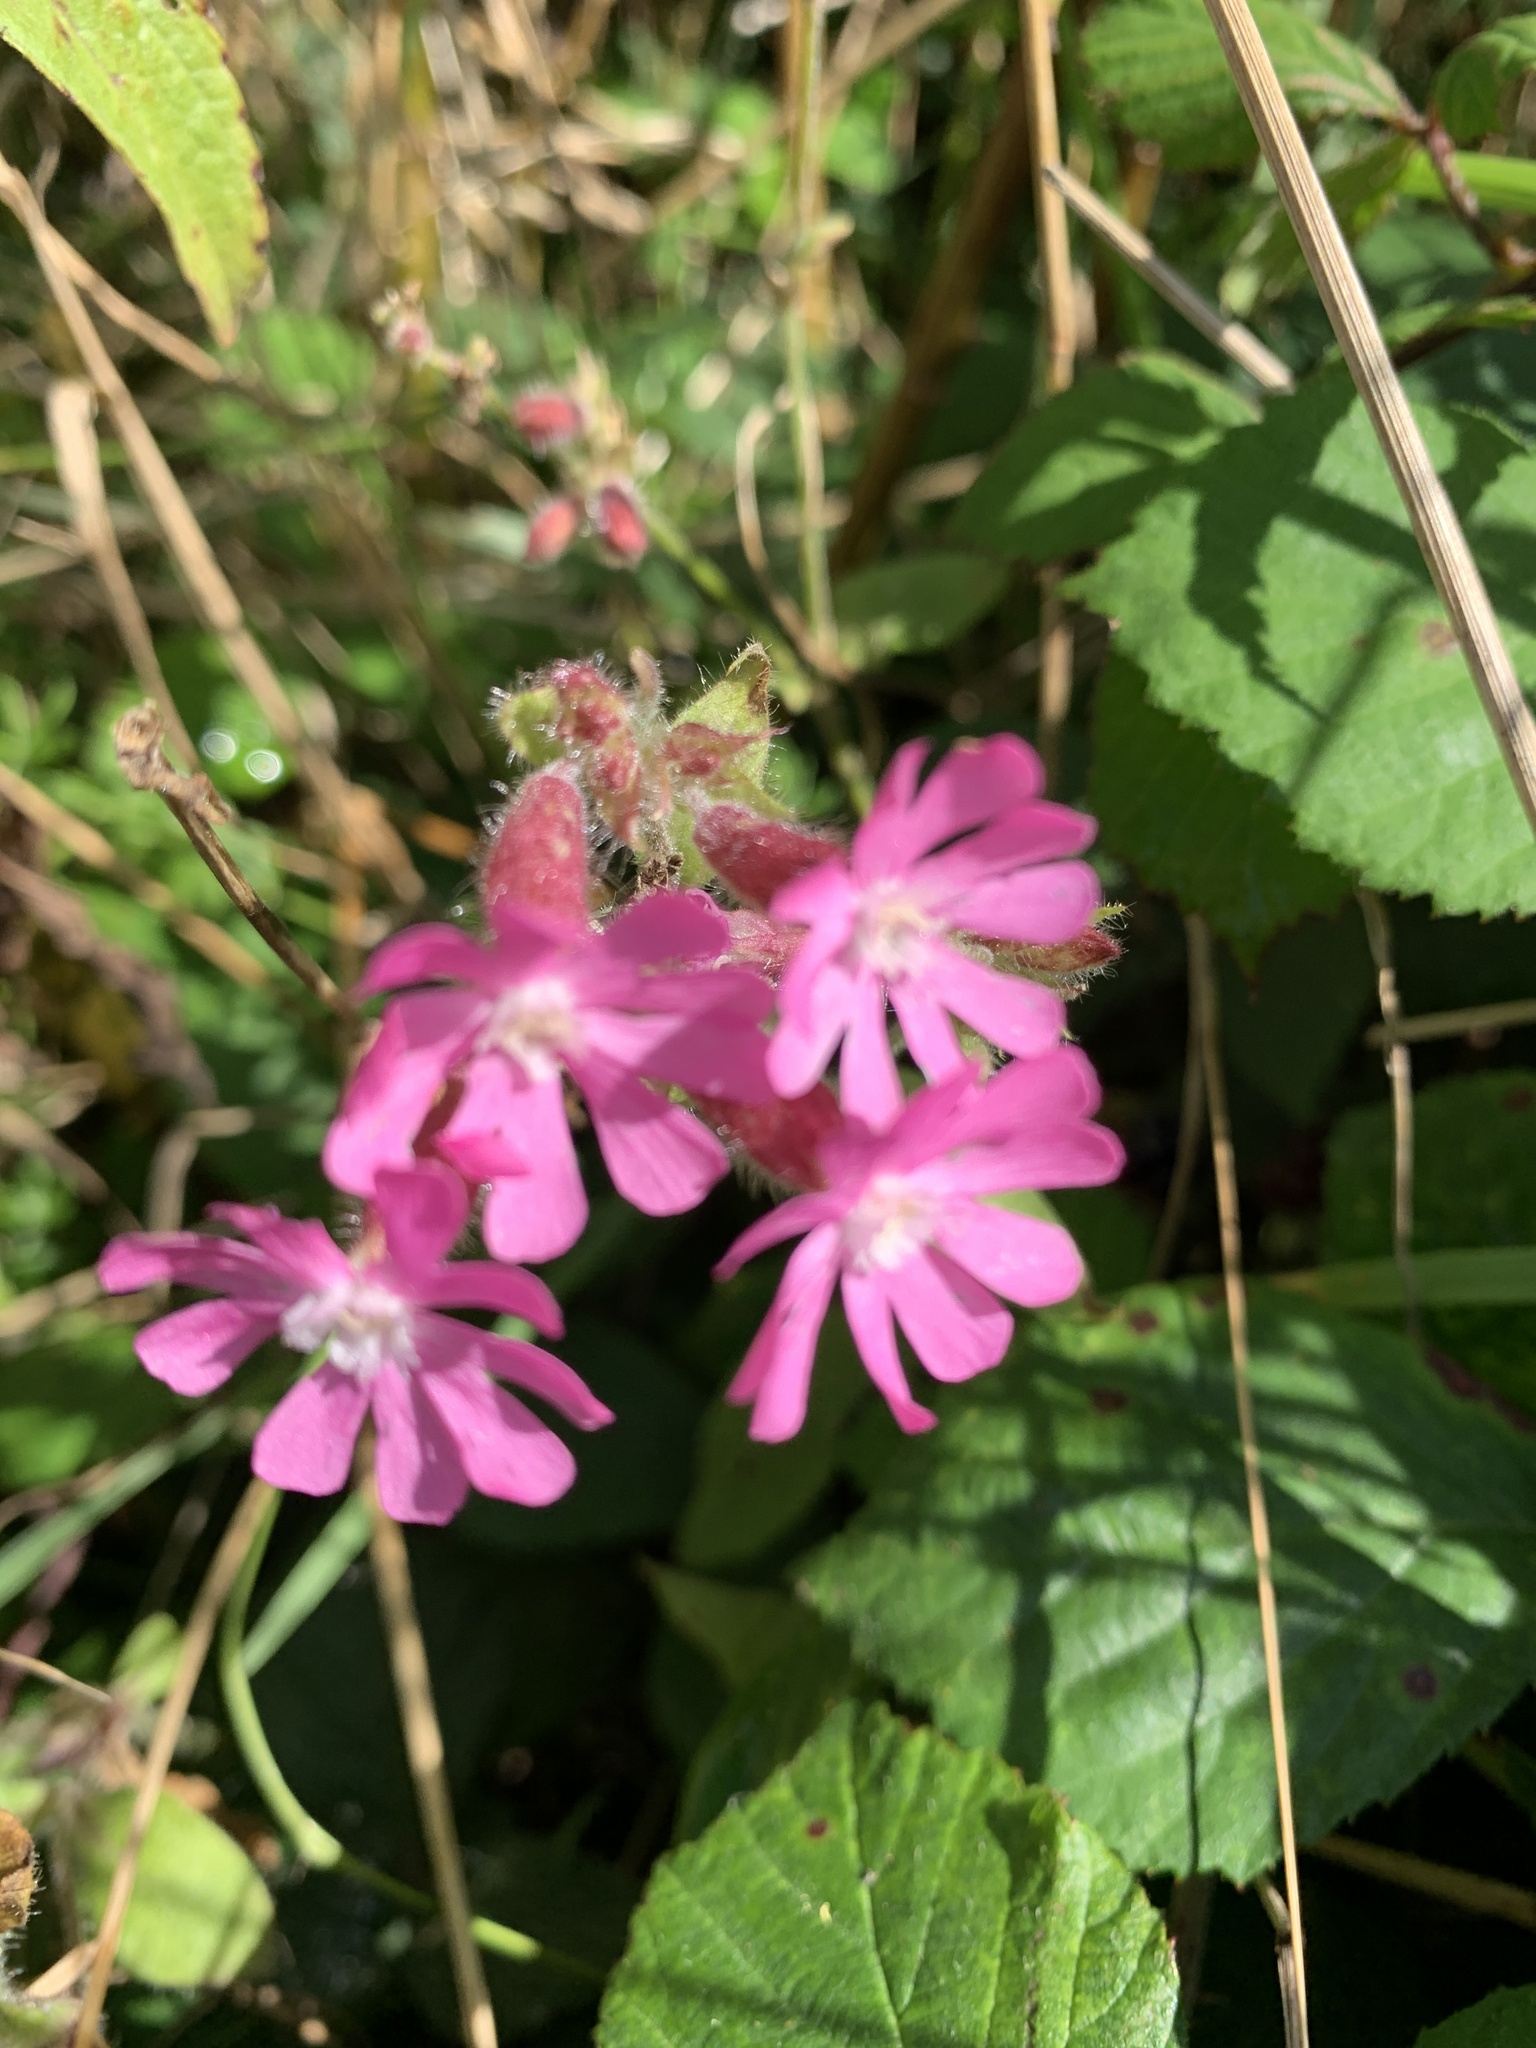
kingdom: Plantae
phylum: Tracheophyta
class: Magnoliopsida
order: Caryophyllales
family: Caryophyllaceae
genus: Silene
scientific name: Silene dioica
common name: Red campion
